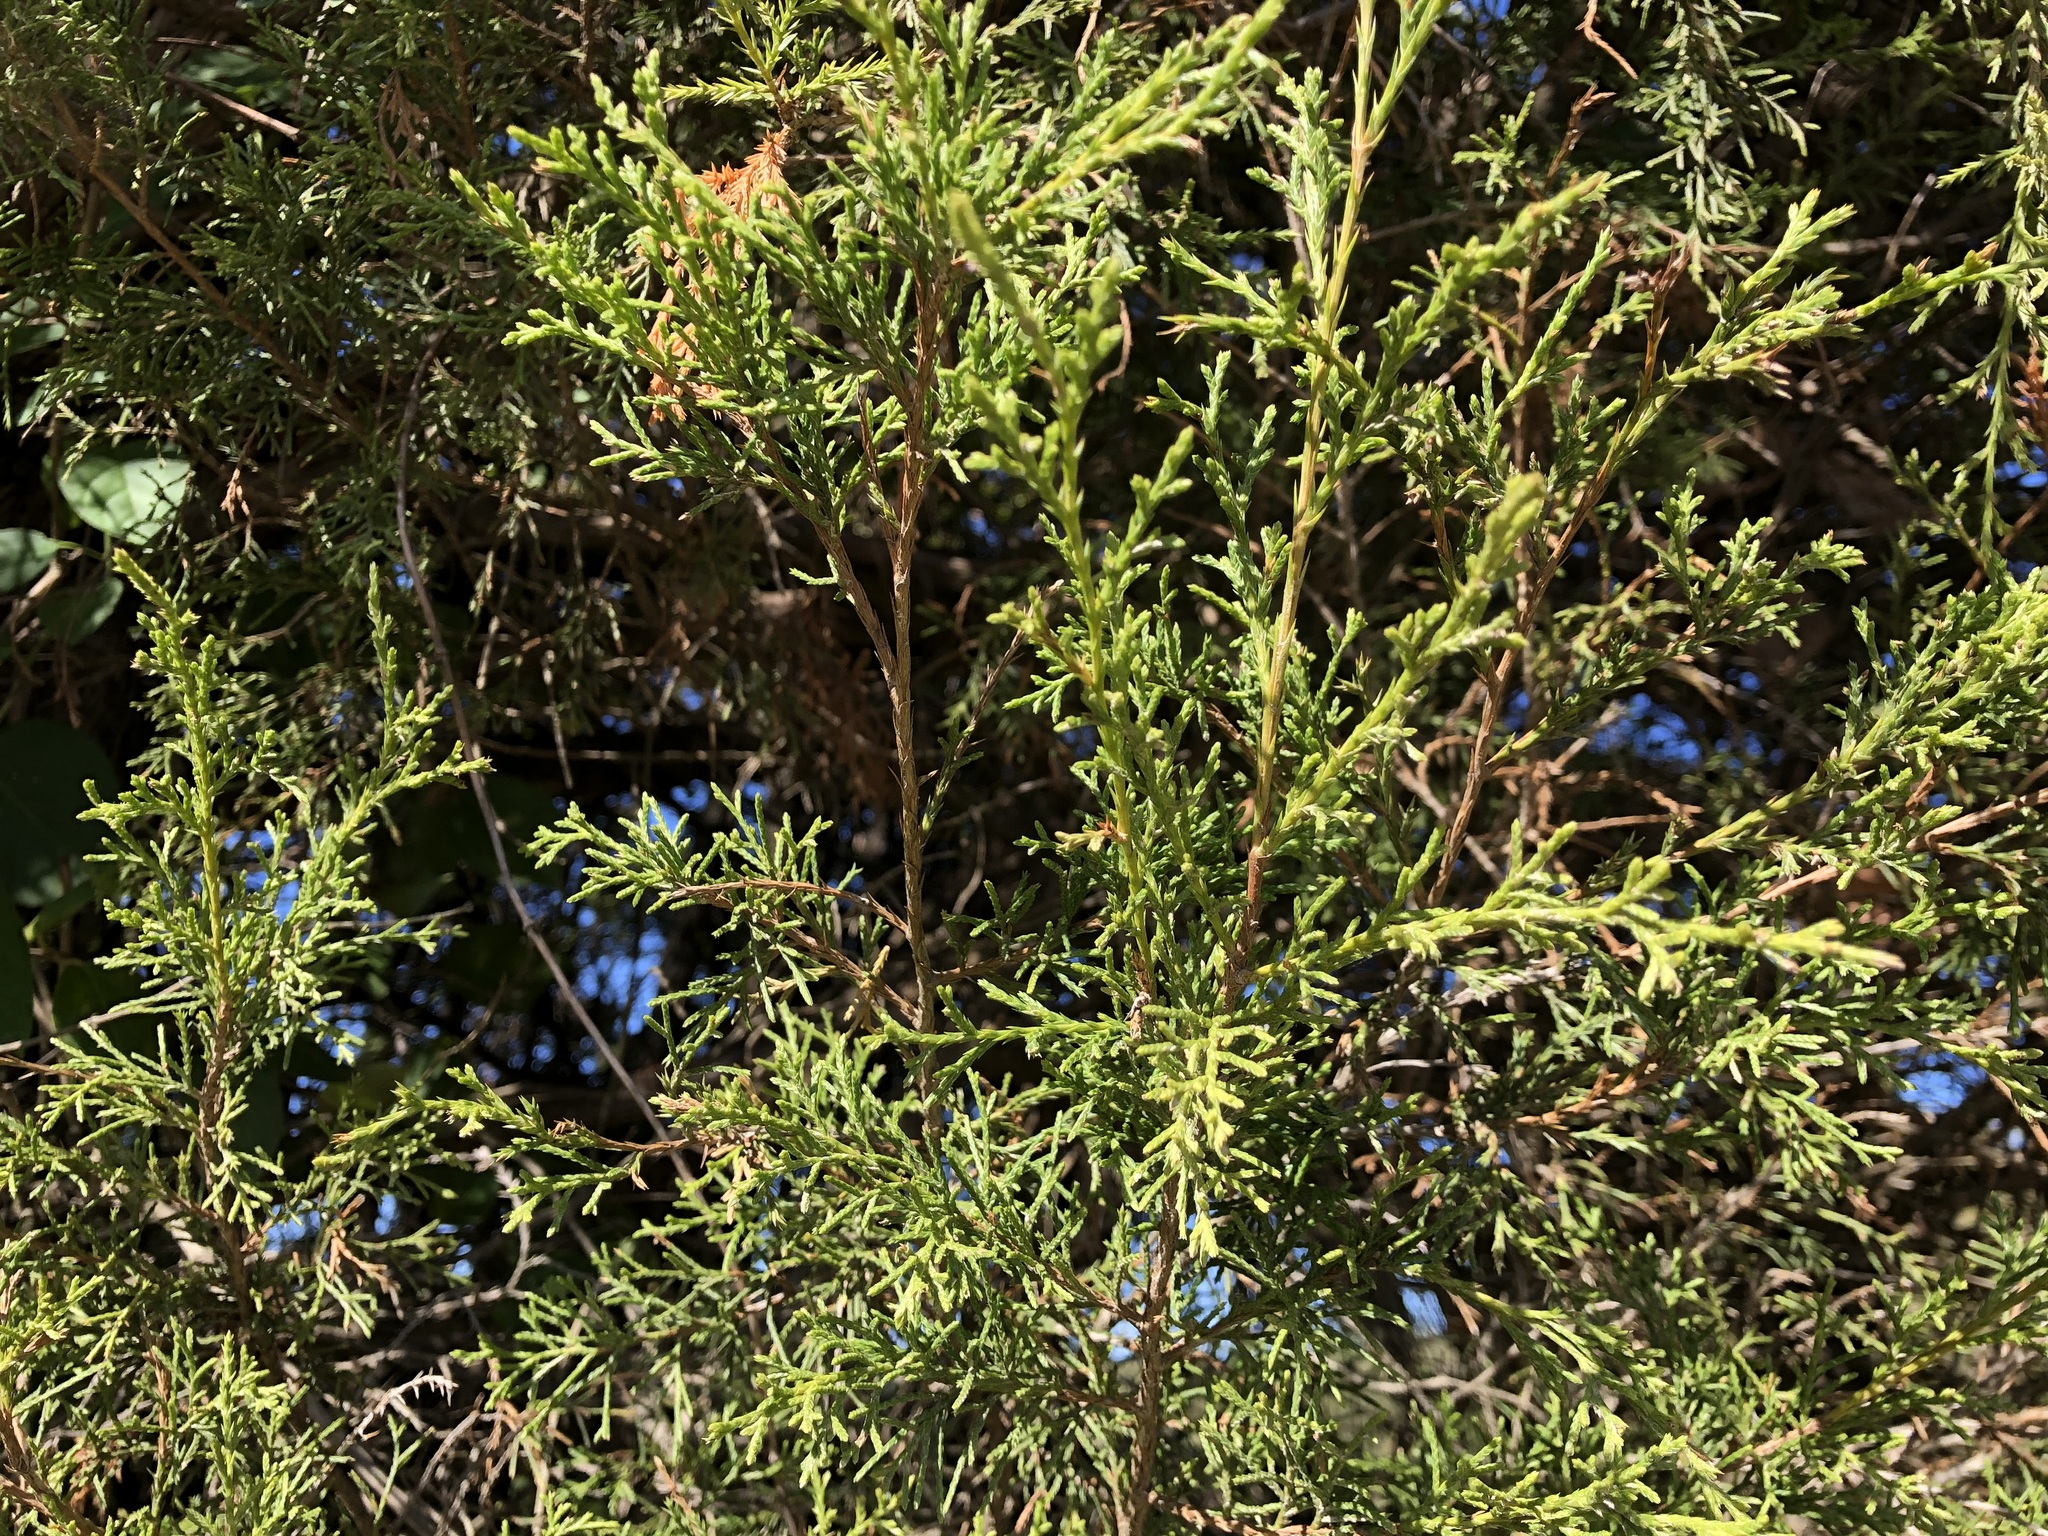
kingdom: Plantae
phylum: Tracheophyta
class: Pinopsida
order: Pinales
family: Cupressaceae
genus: Juniperus
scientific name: Juniperus virginiana
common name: Red juniper
